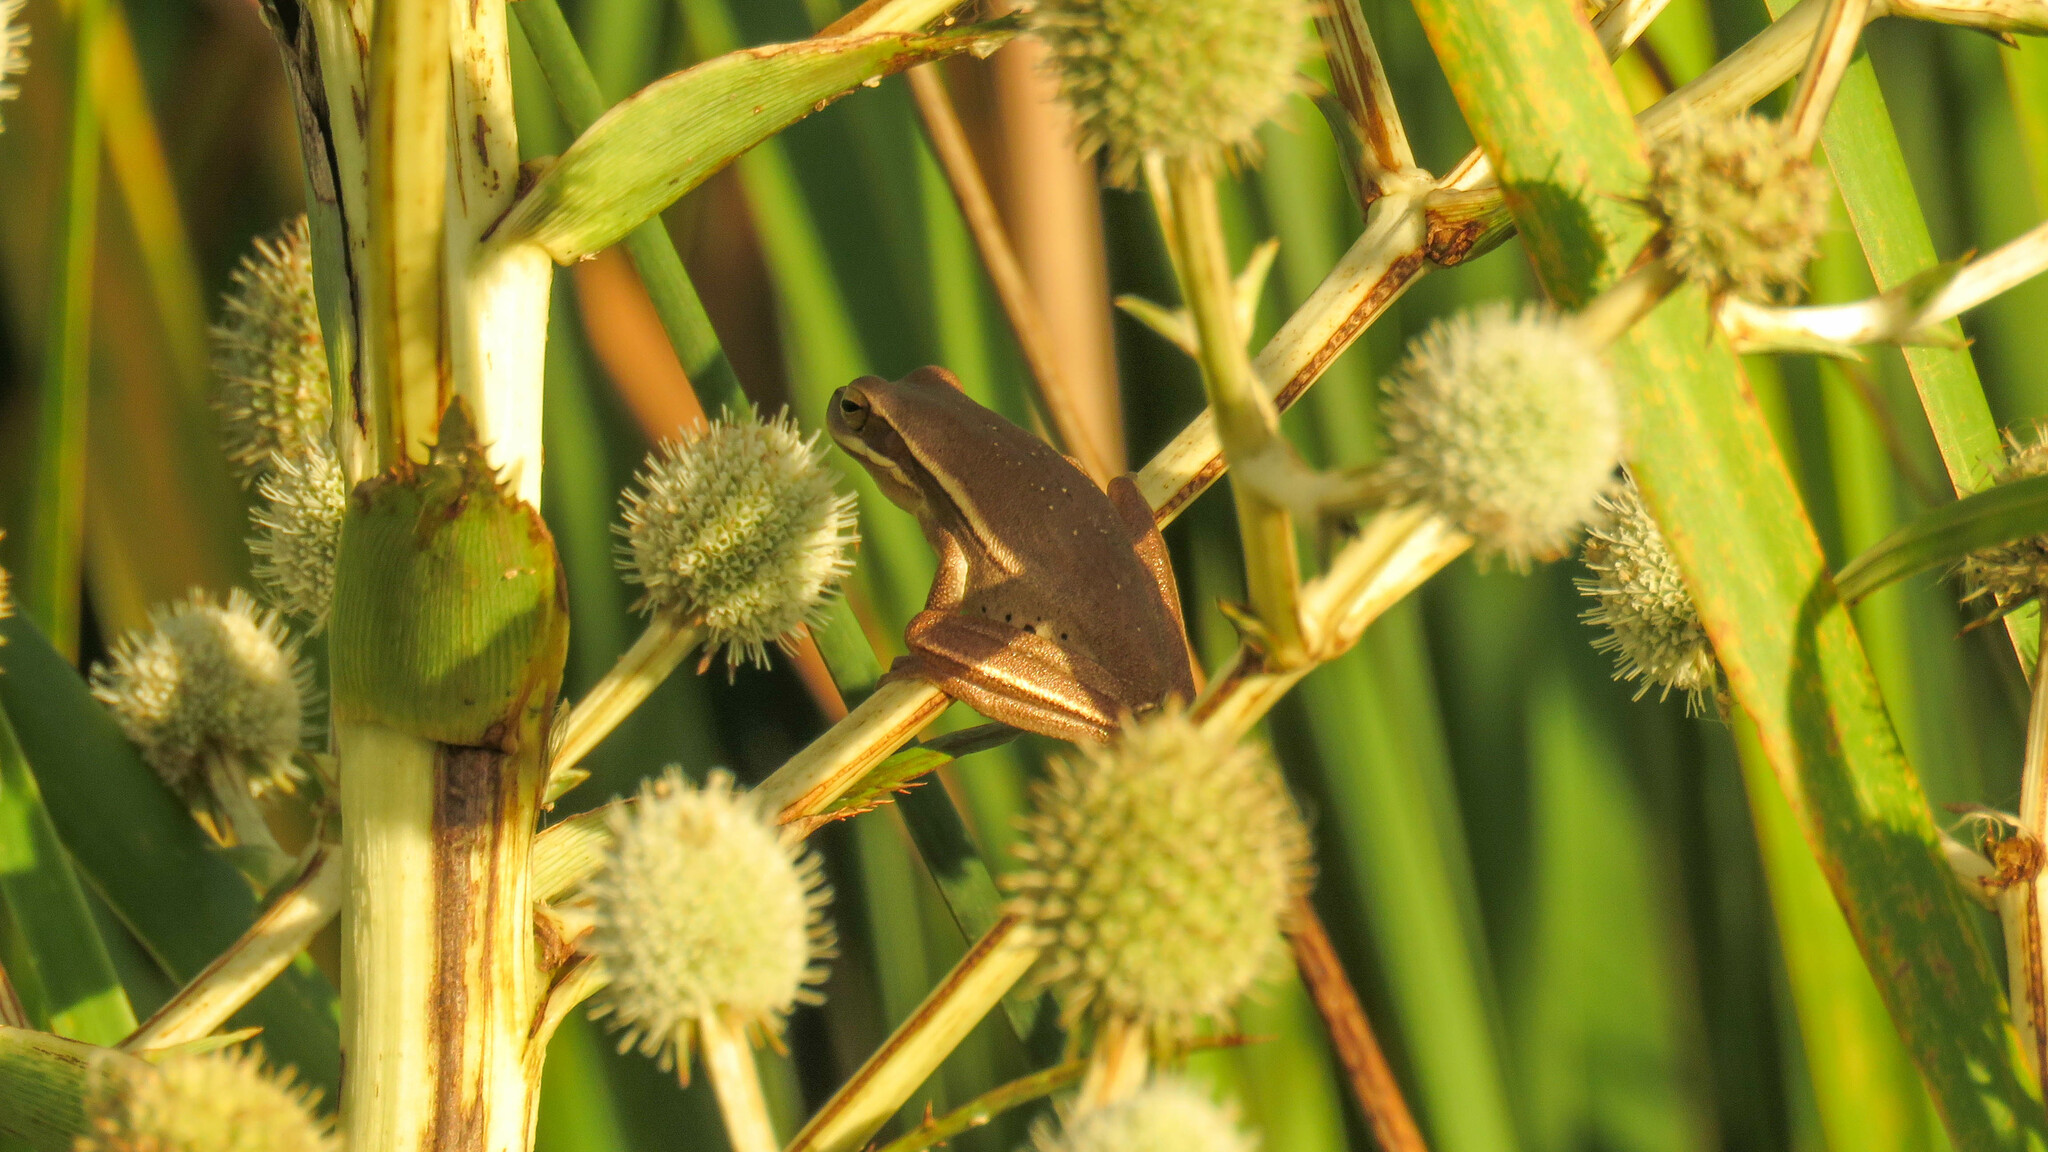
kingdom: Animalia
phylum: Chordata
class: Amphibia
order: Anura
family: Hylidae
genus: Boana
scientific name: Boana pulchella
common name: Montevideo treefrog
